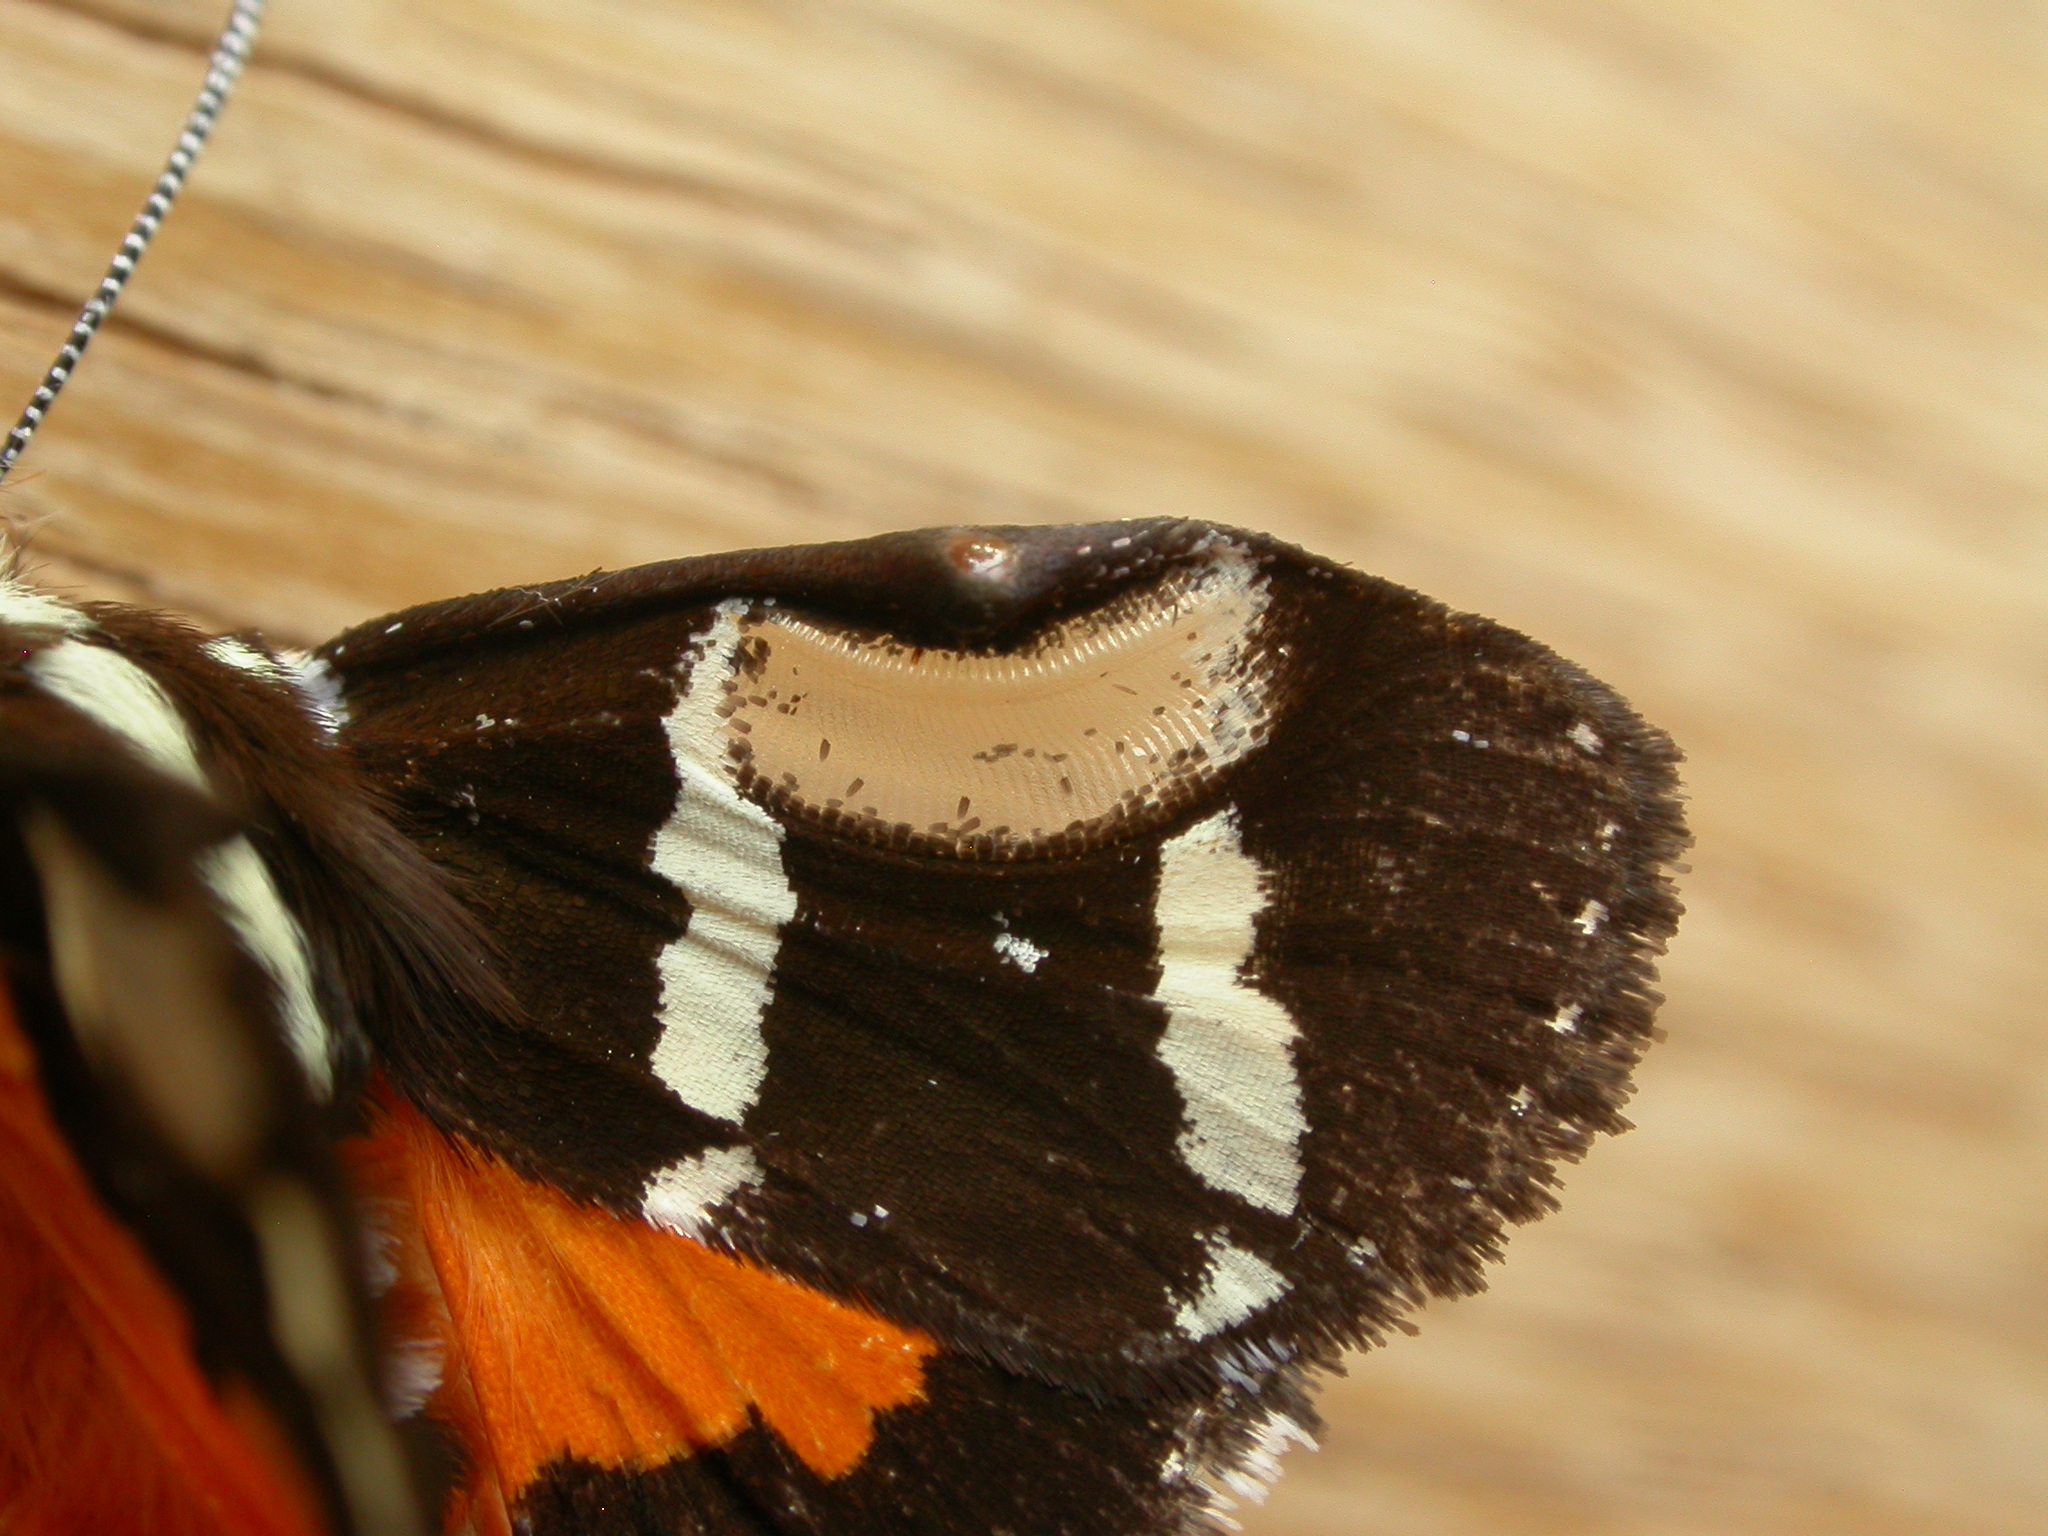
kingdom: Animalia
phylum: Arthropoda
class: Insecta
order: Lepidoptera
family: Noctuidae
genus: Hecatesia
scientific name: Hecatesia fenestrata
